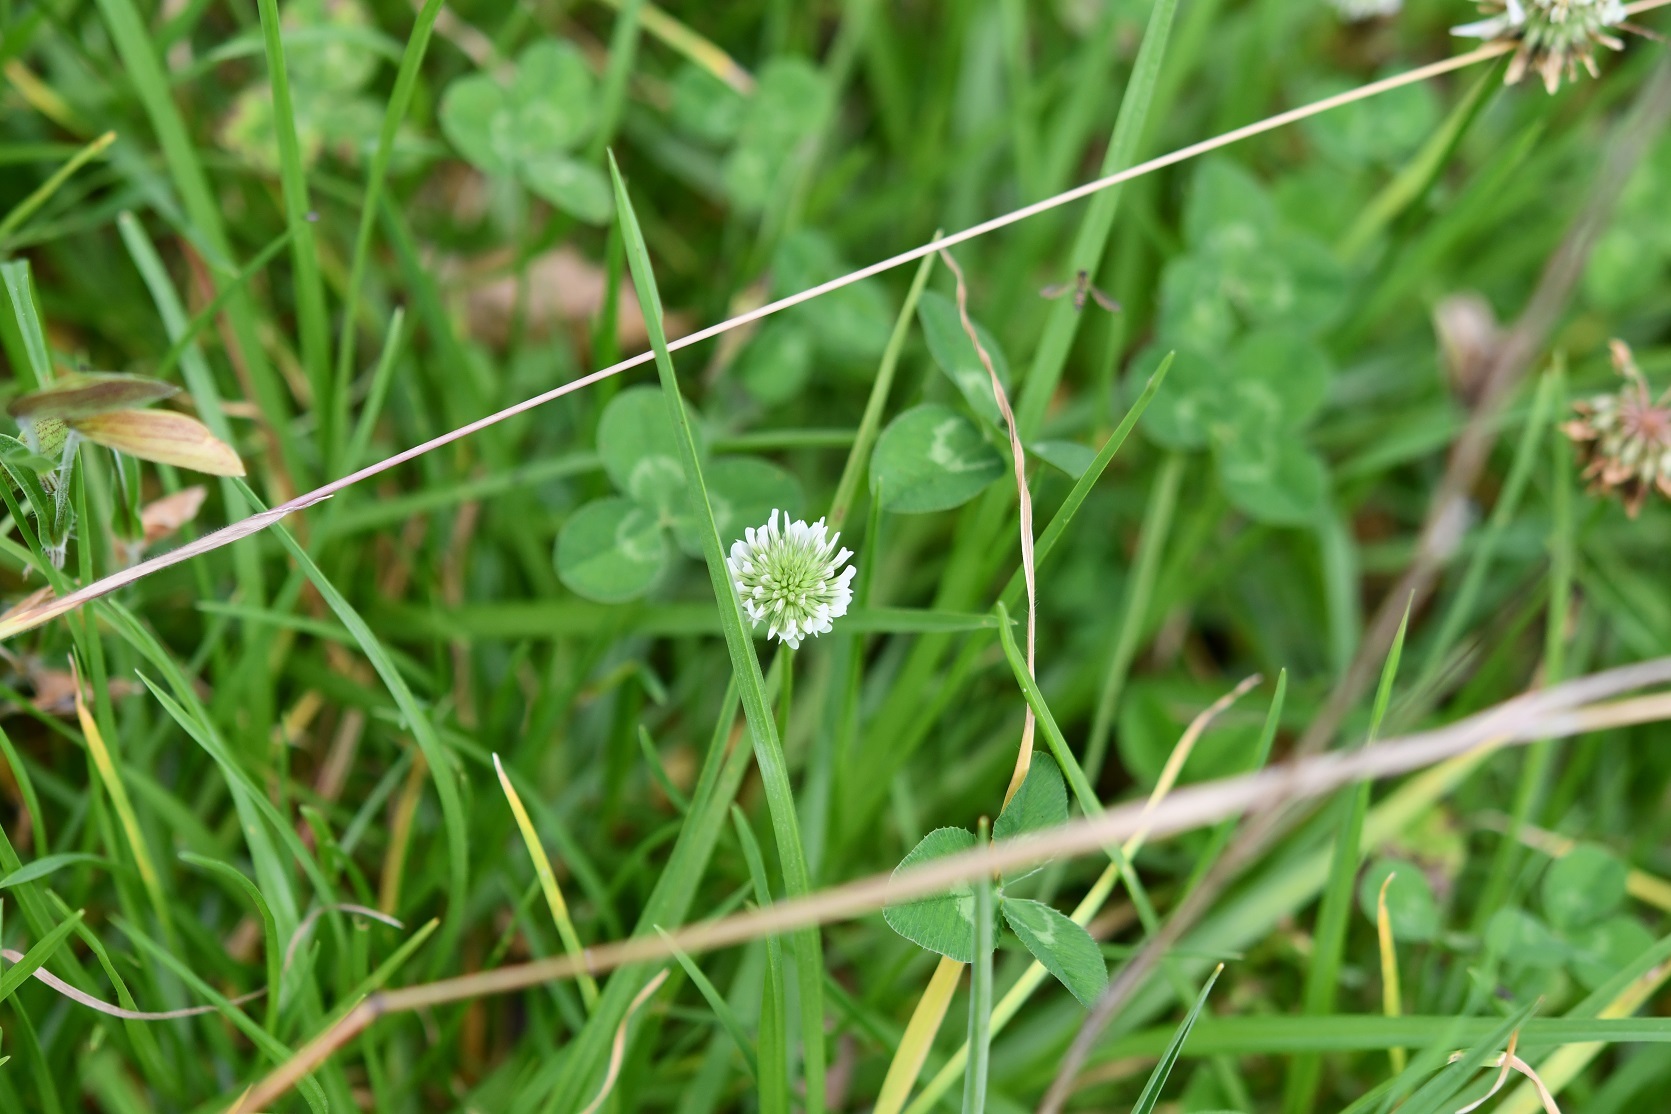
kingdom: Plantae
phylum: Tracheophyta
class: Magnoliopsida
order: Fabales
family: Fabaceae
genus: Trifolium
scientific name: Trifolium repens
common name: White clover
